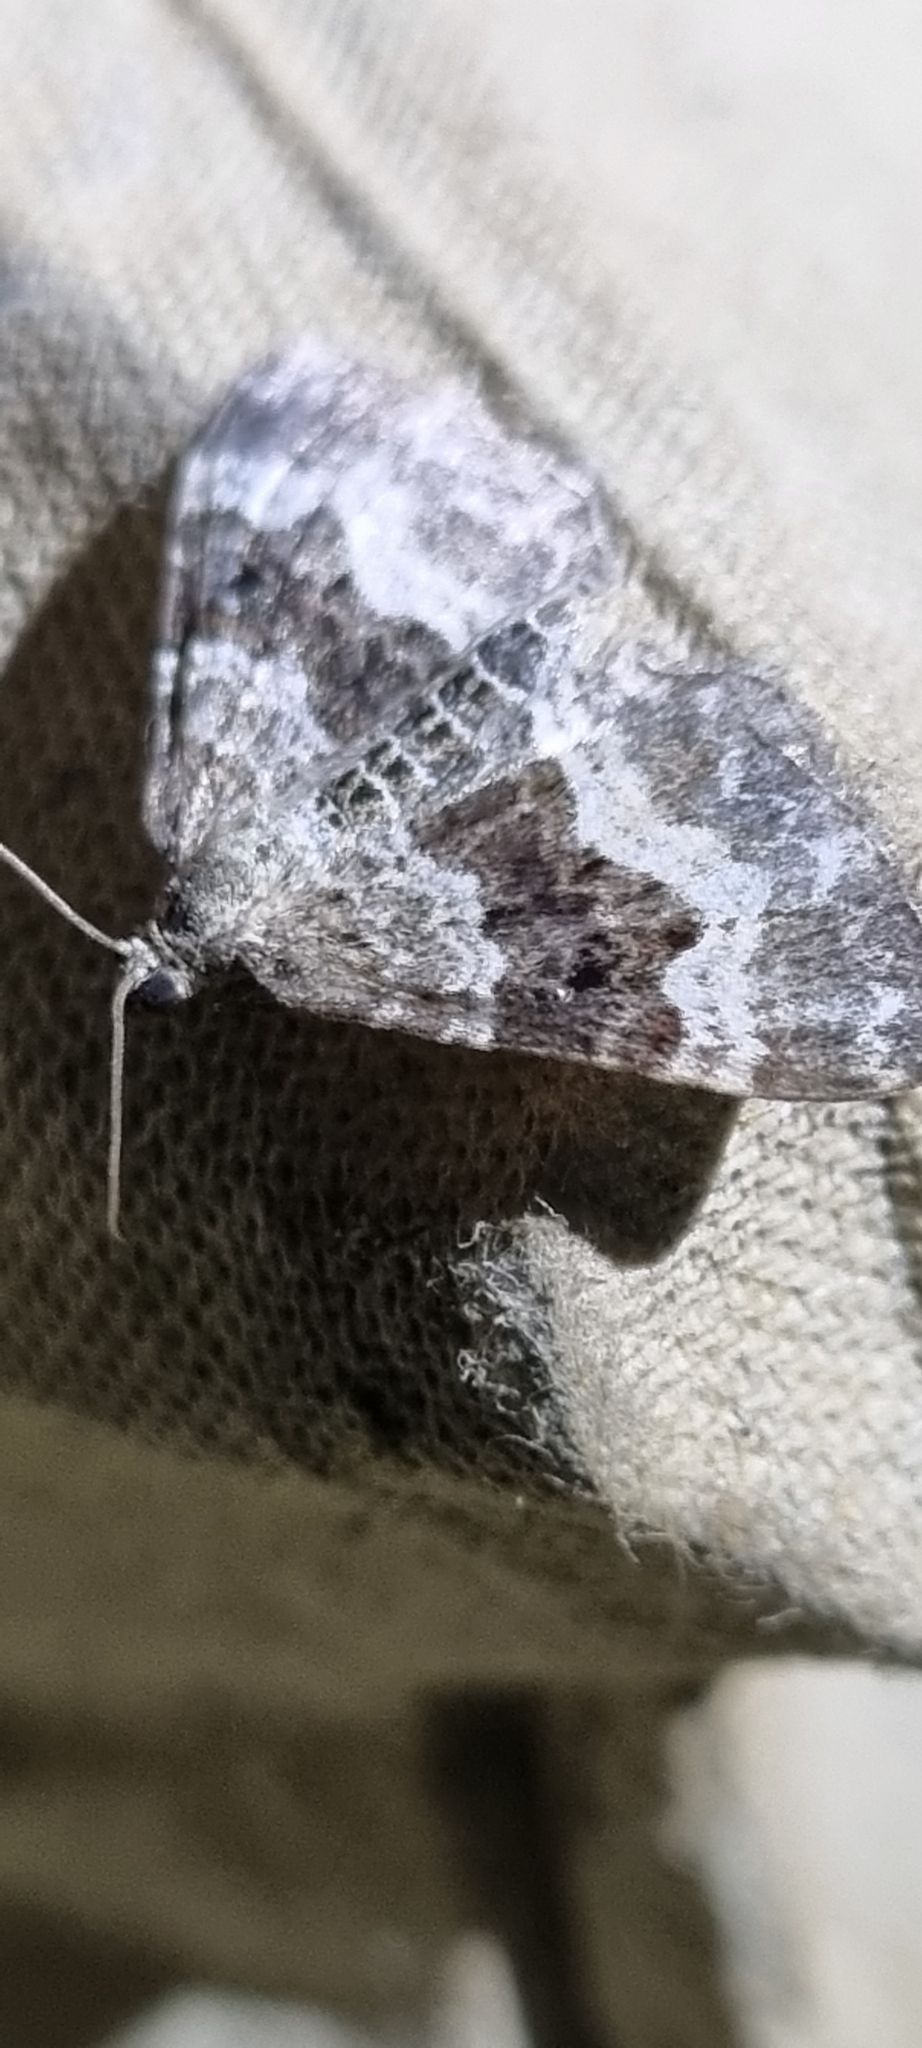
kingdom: Animalia
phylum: Arthropoda
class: Insecta
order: Lepidoptera
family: Geometridae
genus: Epirrhoe
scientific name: Epirrhoe alternata
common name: Common carpet
